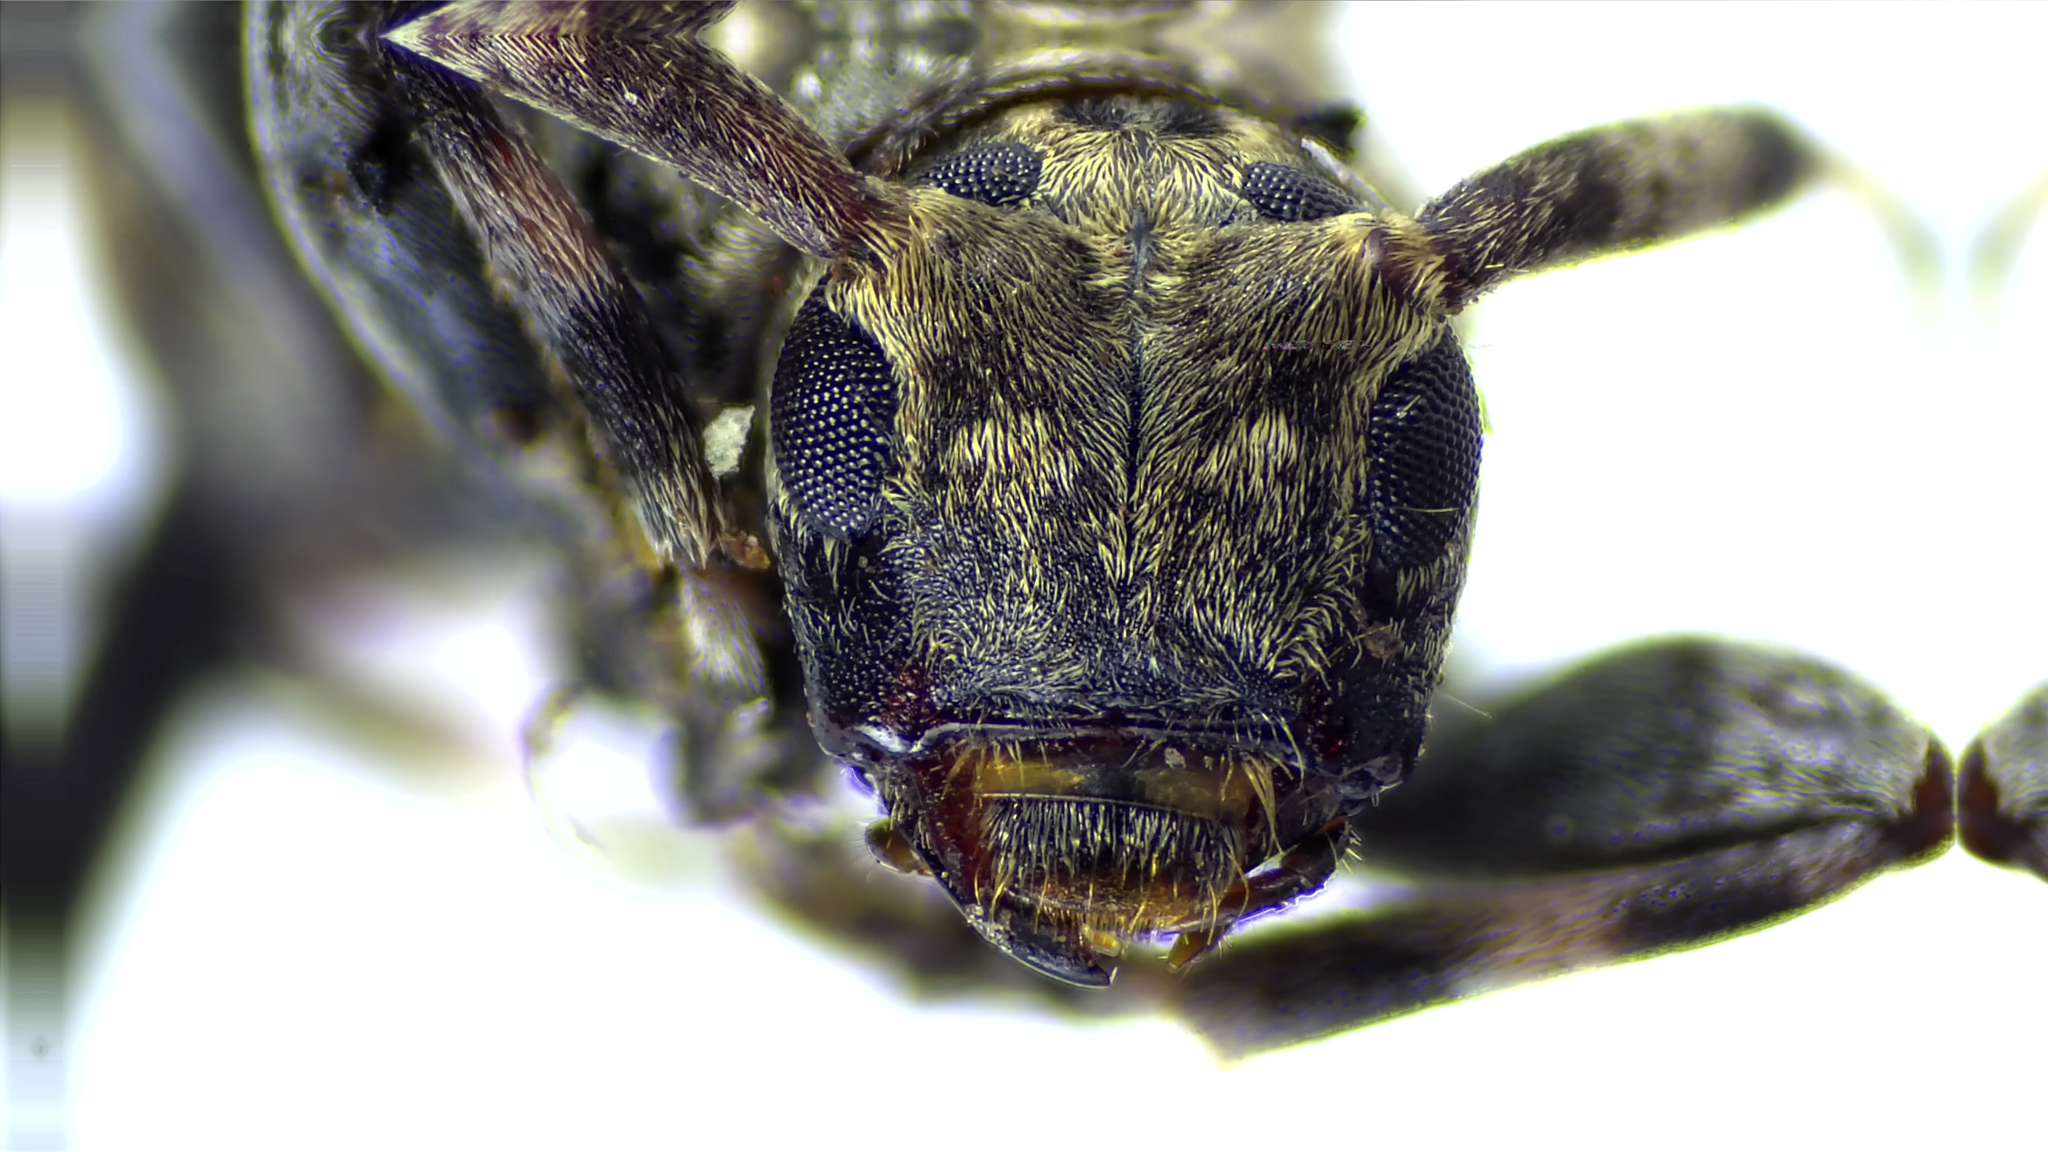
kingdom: Animalia
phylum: Arthropoda
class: Insecta
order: Coleoptera
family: Cerambycidae
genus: Astyleiopus
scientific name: Astyleiopus variegatus
